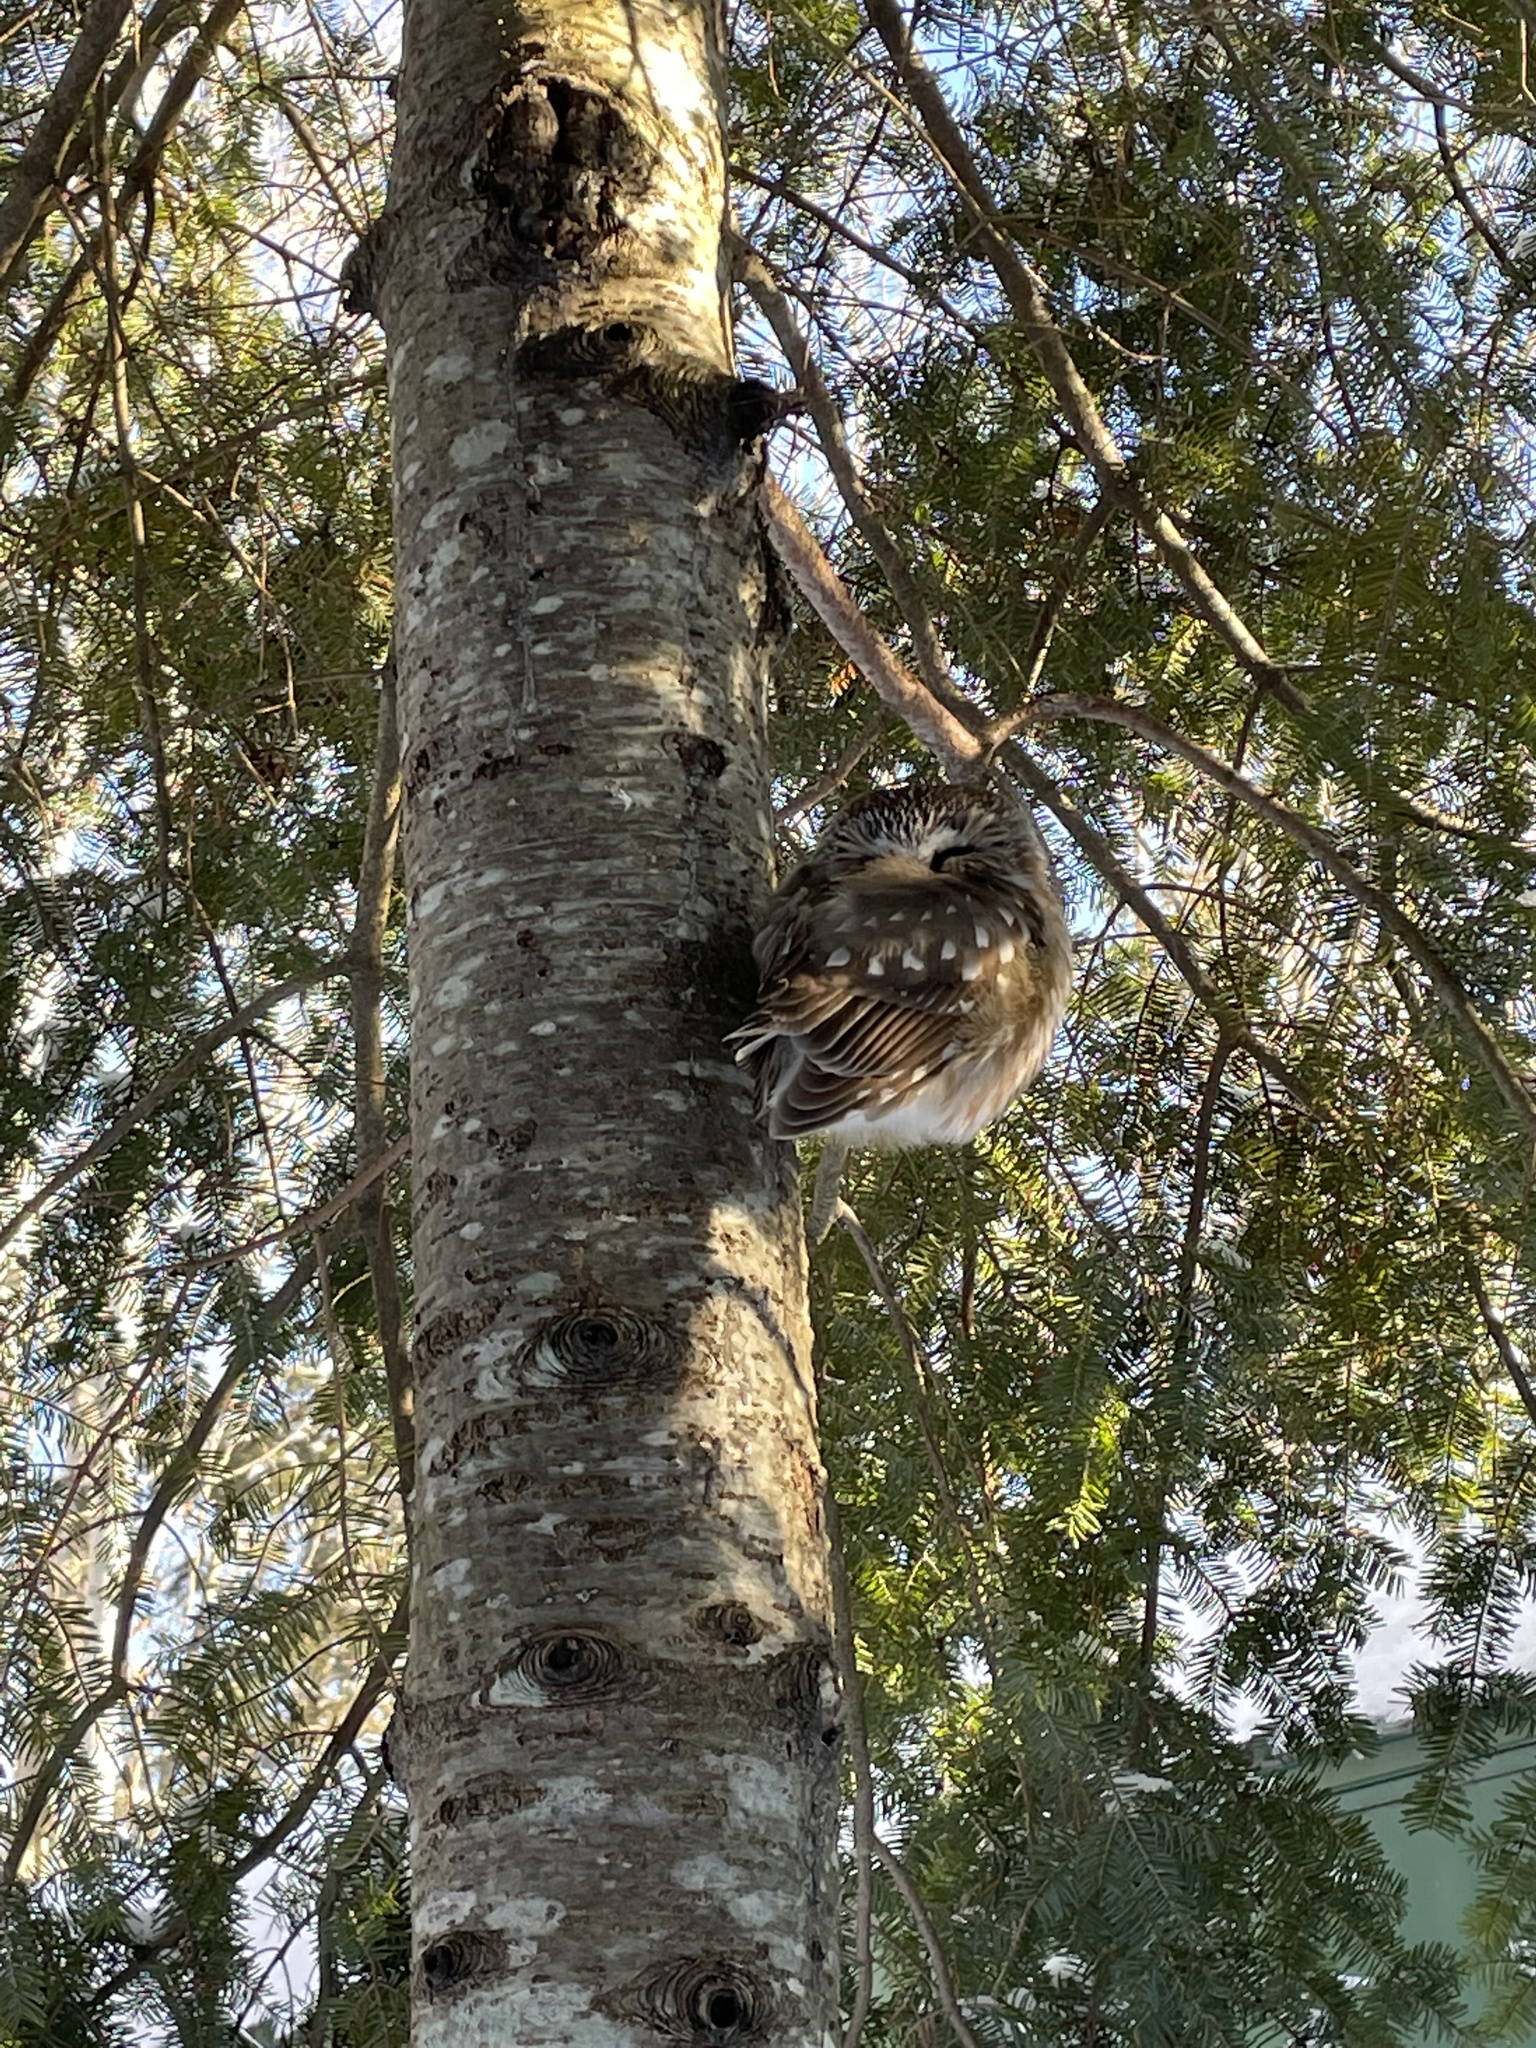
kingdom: Animalia
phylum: Chordata
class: Aves
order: Strigiformes
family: Strigidae
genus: Aegolius
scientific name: Aegolius acadicus
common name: Northern saw-whet owl
